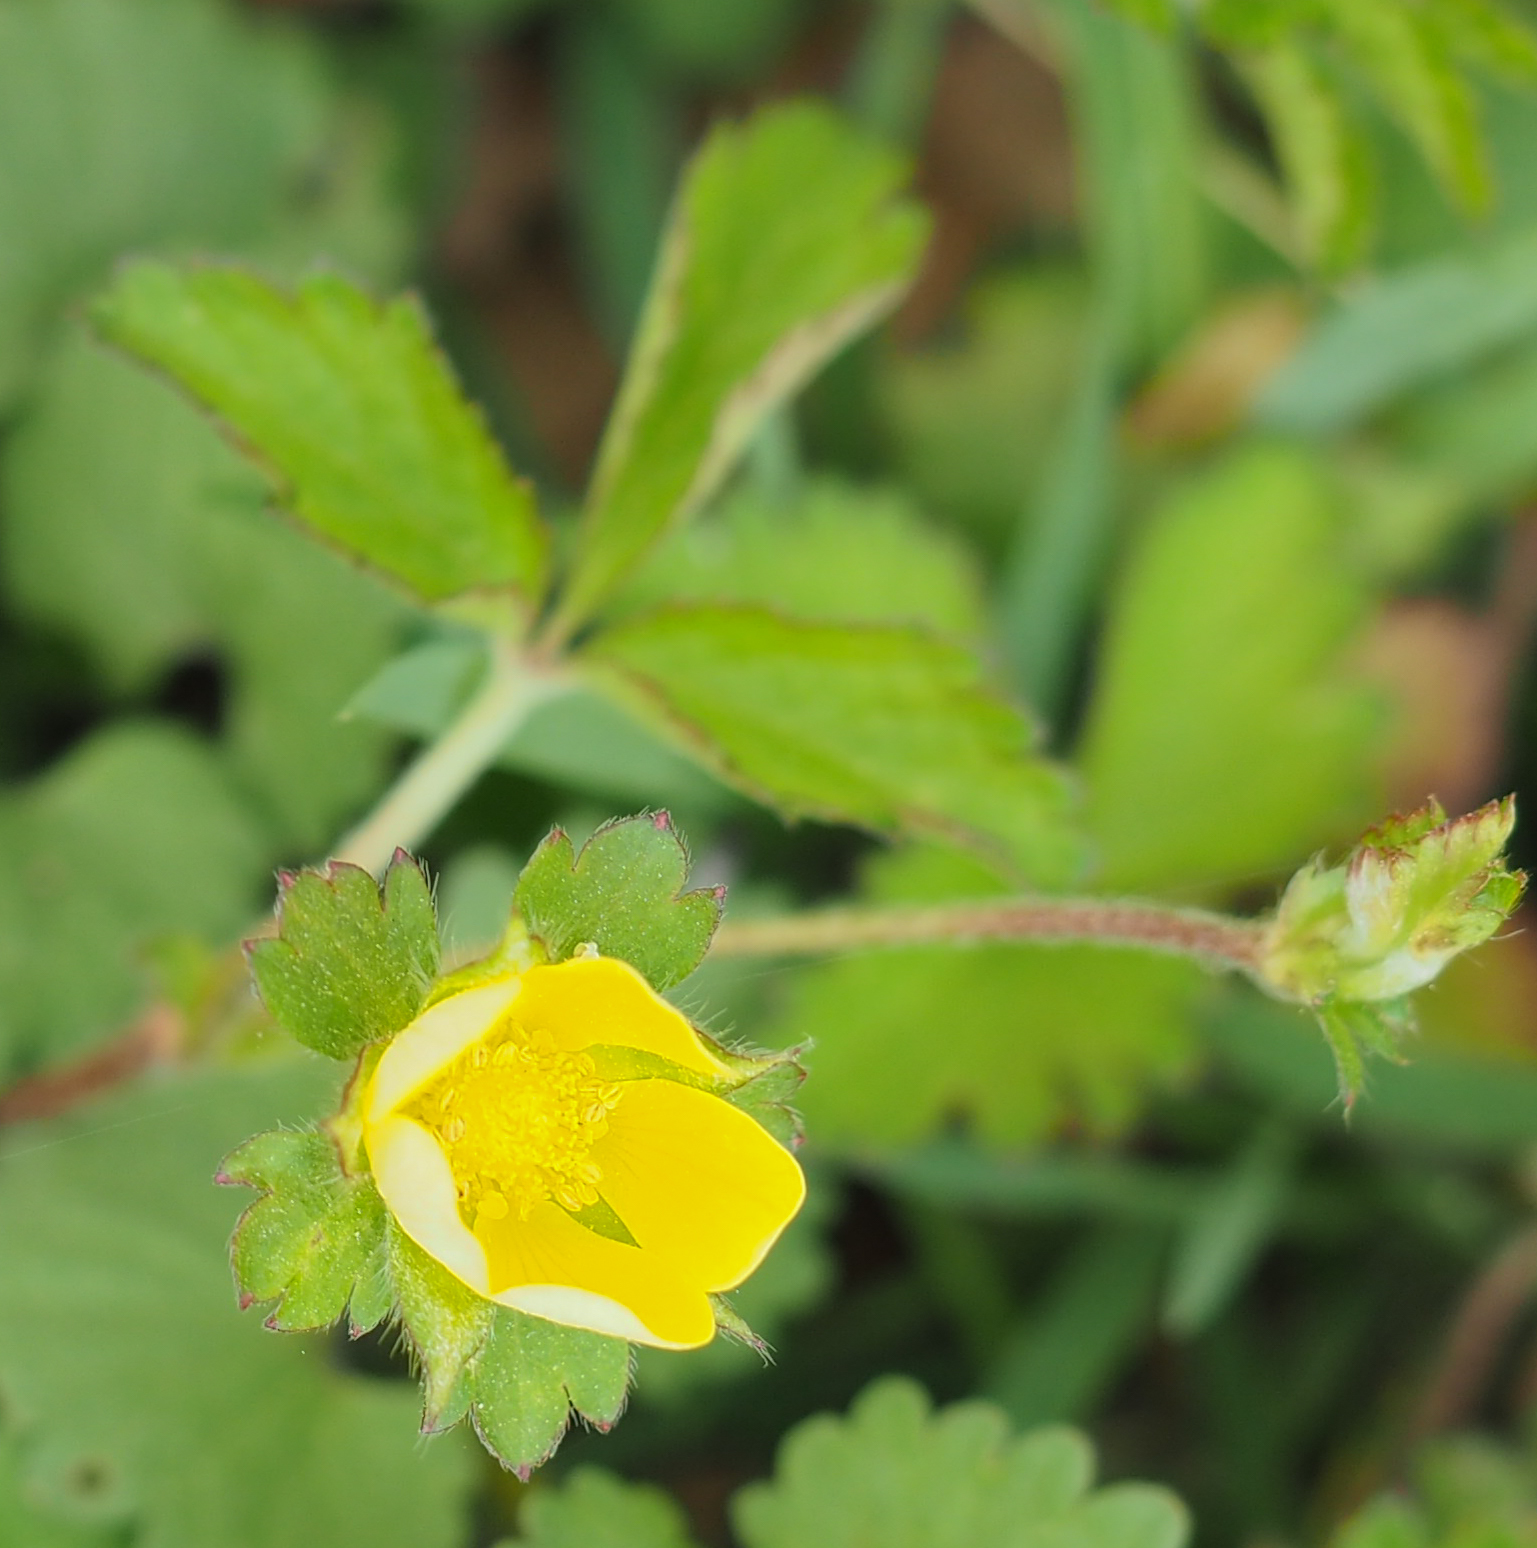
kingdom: Plantae
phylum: Tracheophyta
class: Magnoliopsida
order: Rosales
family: Rosaceae
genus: Potentilla
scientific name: Potentilla indica
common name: Yellow-flowered strawberry
